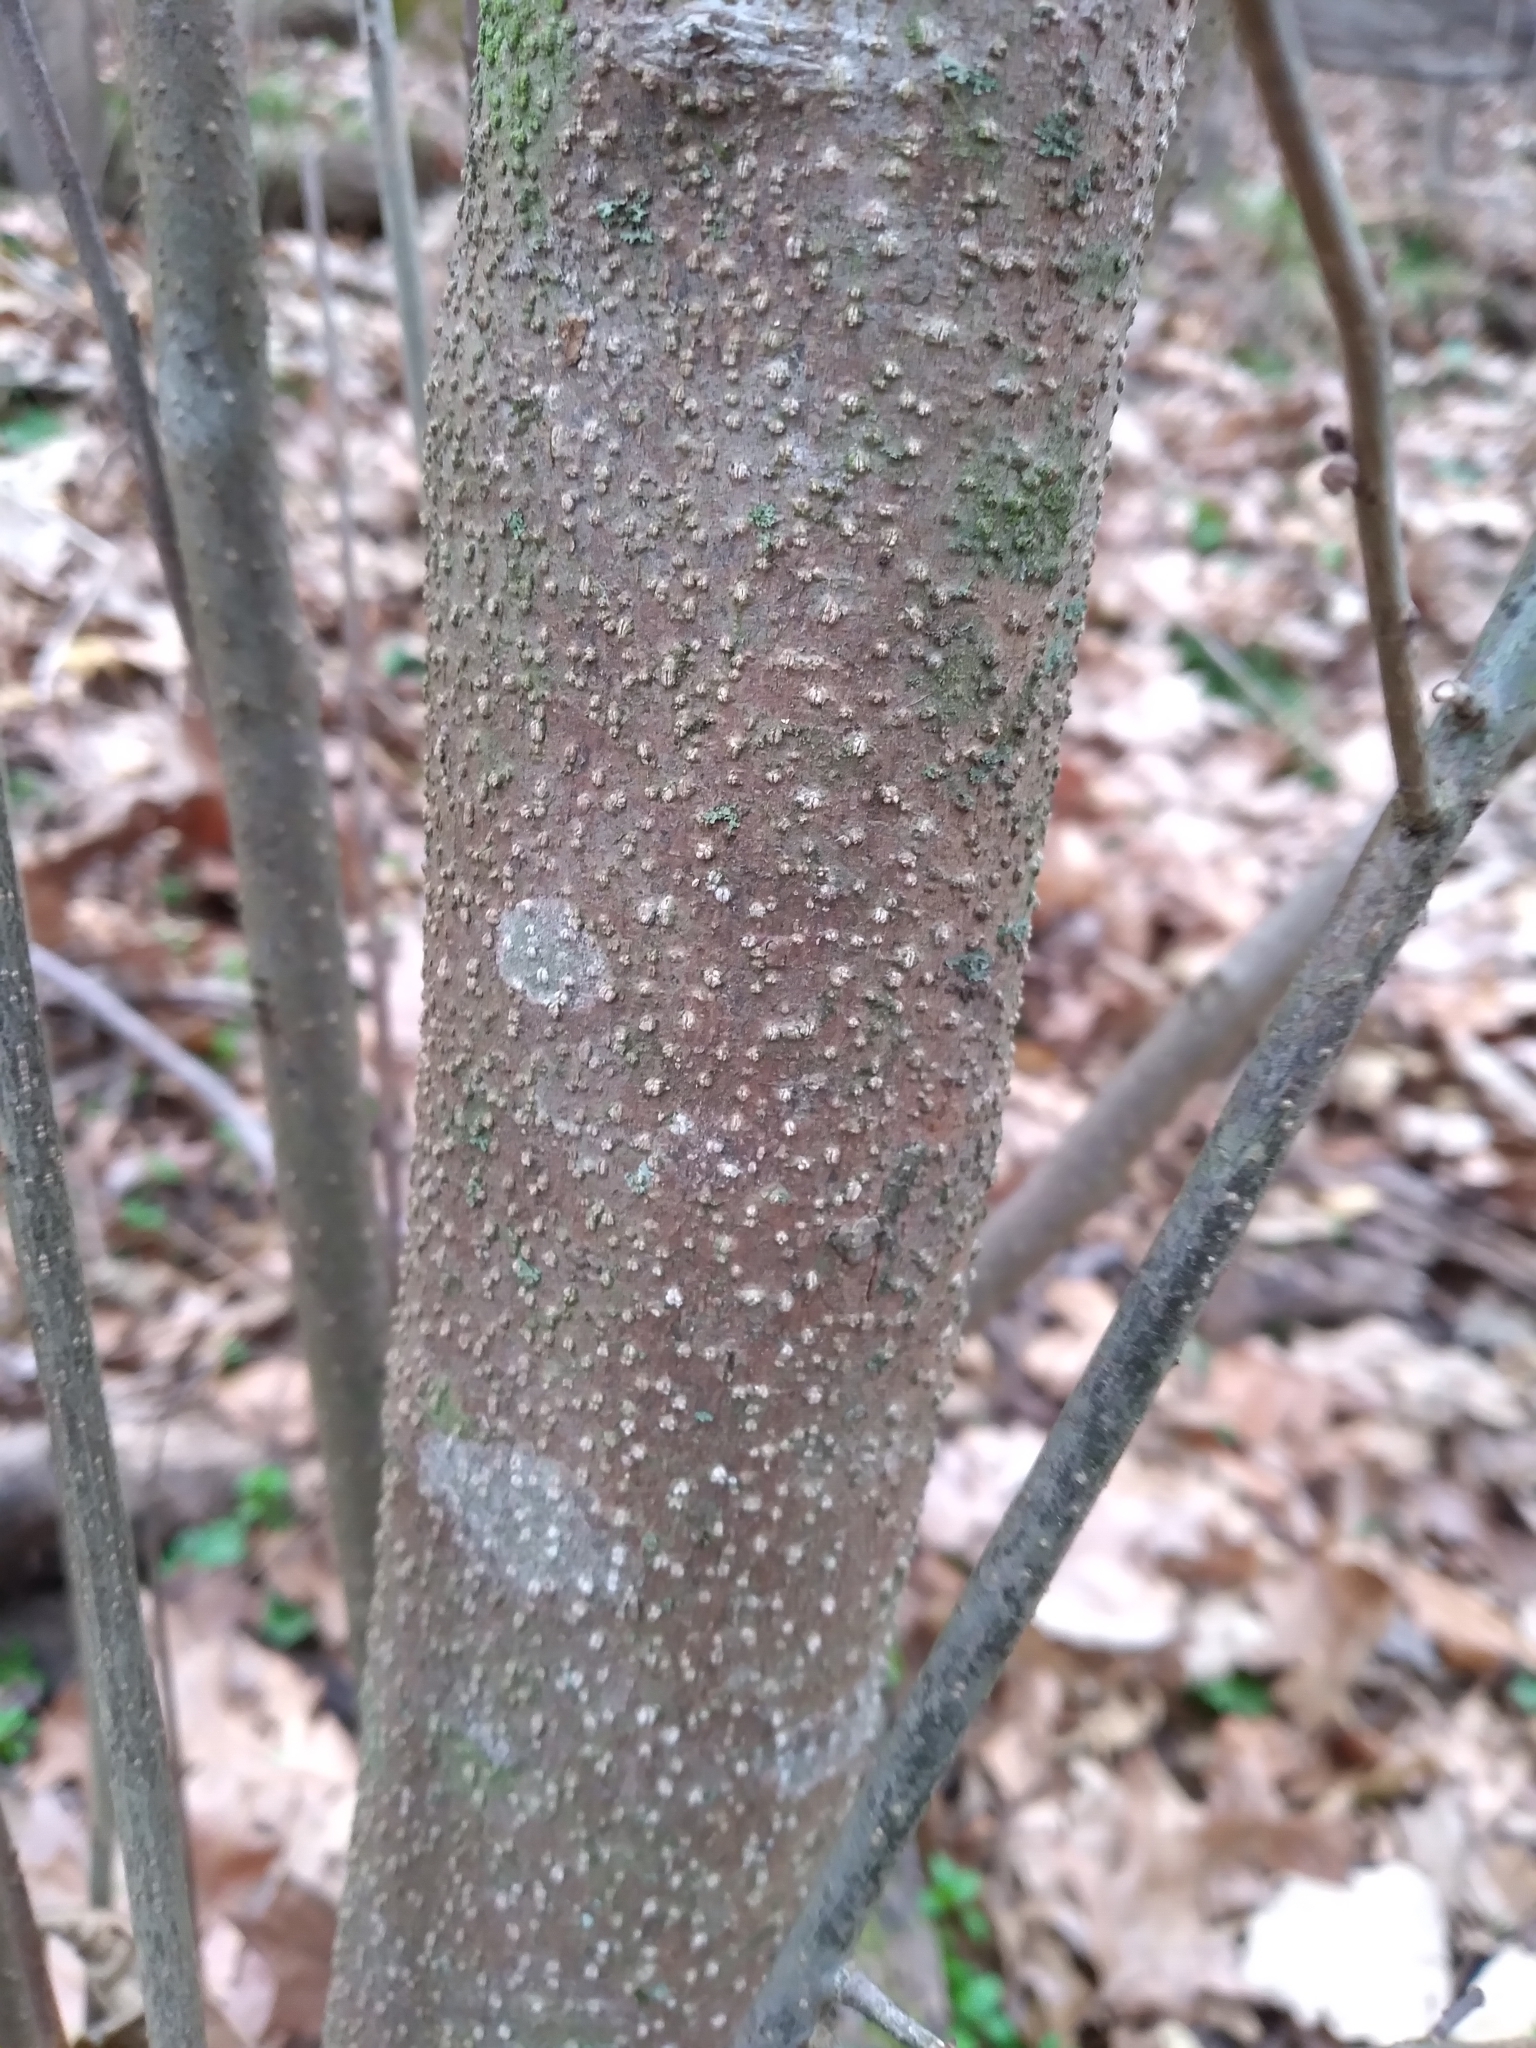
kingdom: Plantae
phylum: Tracheophyta
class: Magnoliopsida
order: Laurales
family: Lauraceae
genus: Lindera
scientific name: Lindera benzoin
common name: Spicebush
